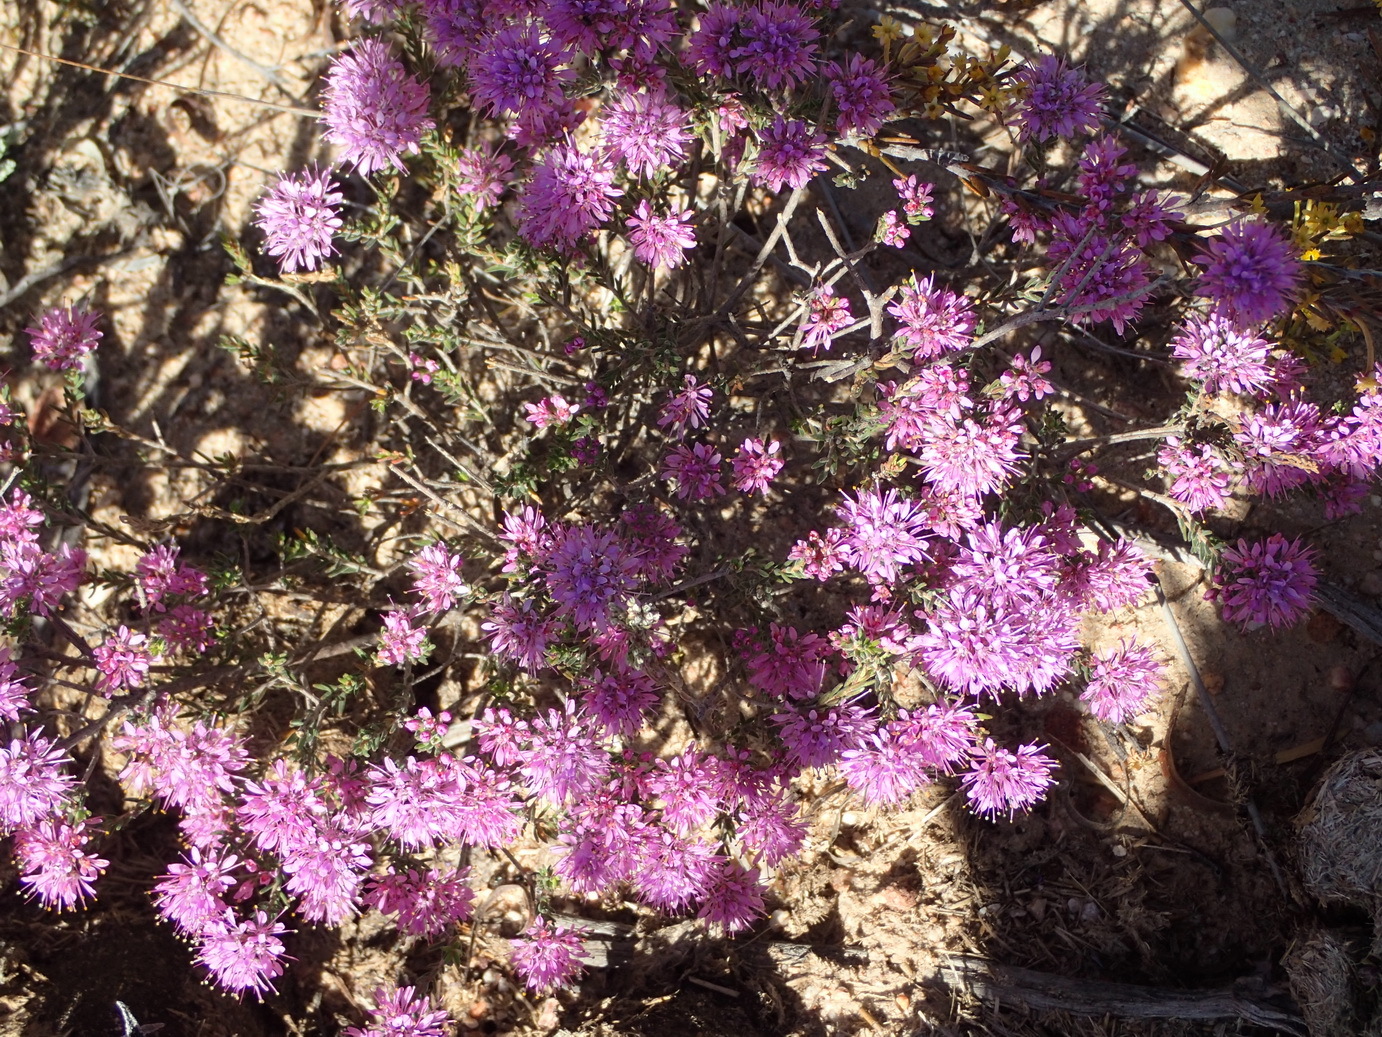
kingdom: Plantae
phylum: Tracheophyta
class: Magnoliopsida
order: Sapindales
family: Rutaceae
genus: Agathosma
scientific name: Agathosma
